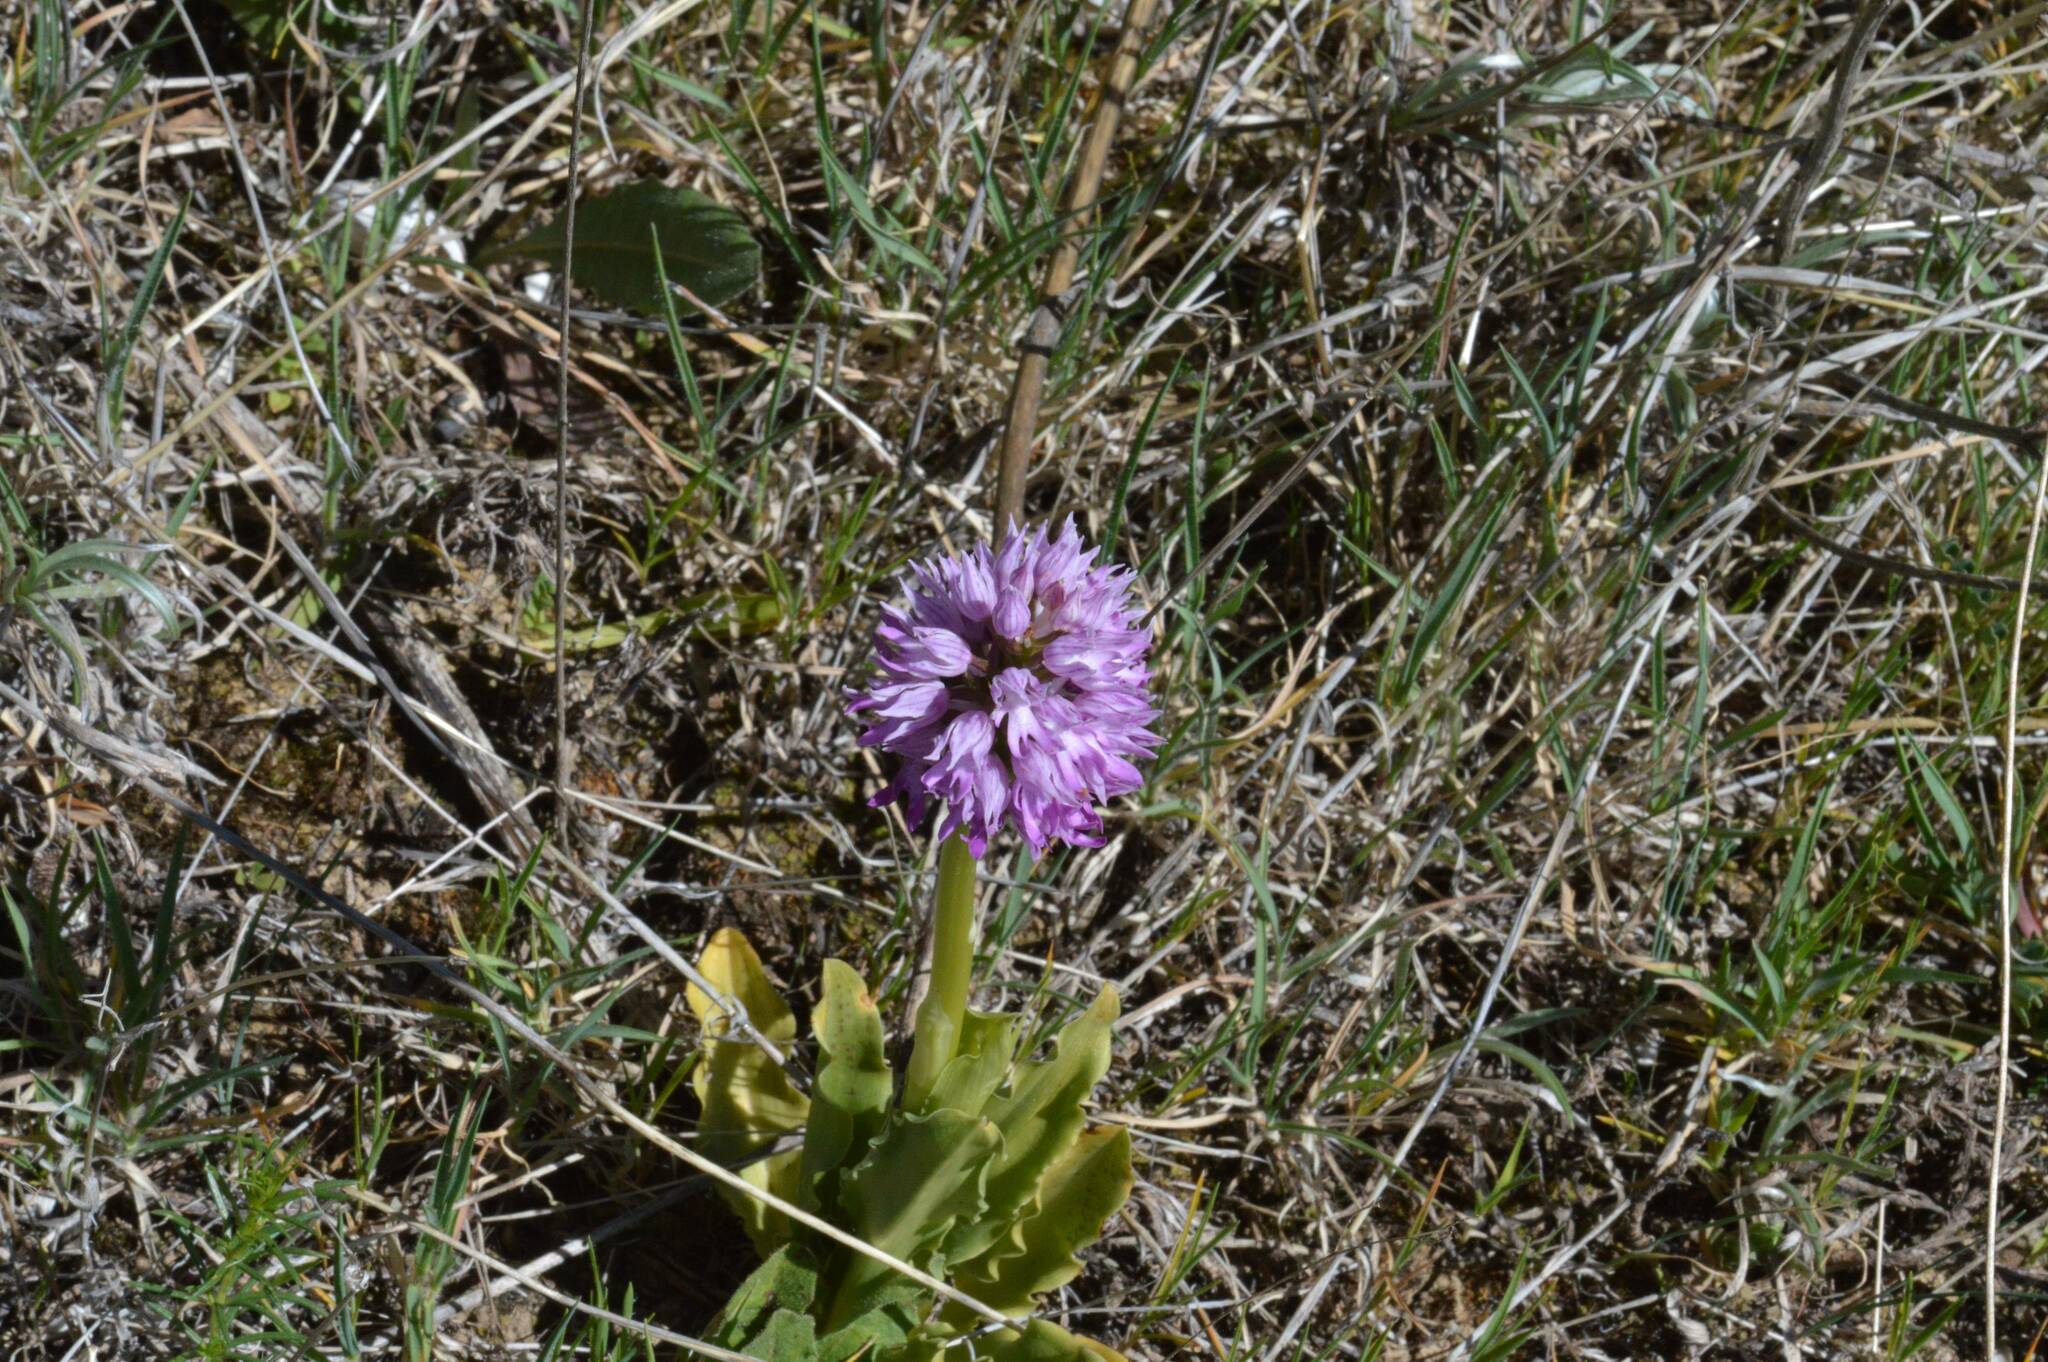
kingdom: Plantae
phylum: Tracheophyta
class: Liliopsida
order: Asparagales
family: Orchidaceae
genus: Orchis
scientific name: Orchis italica
